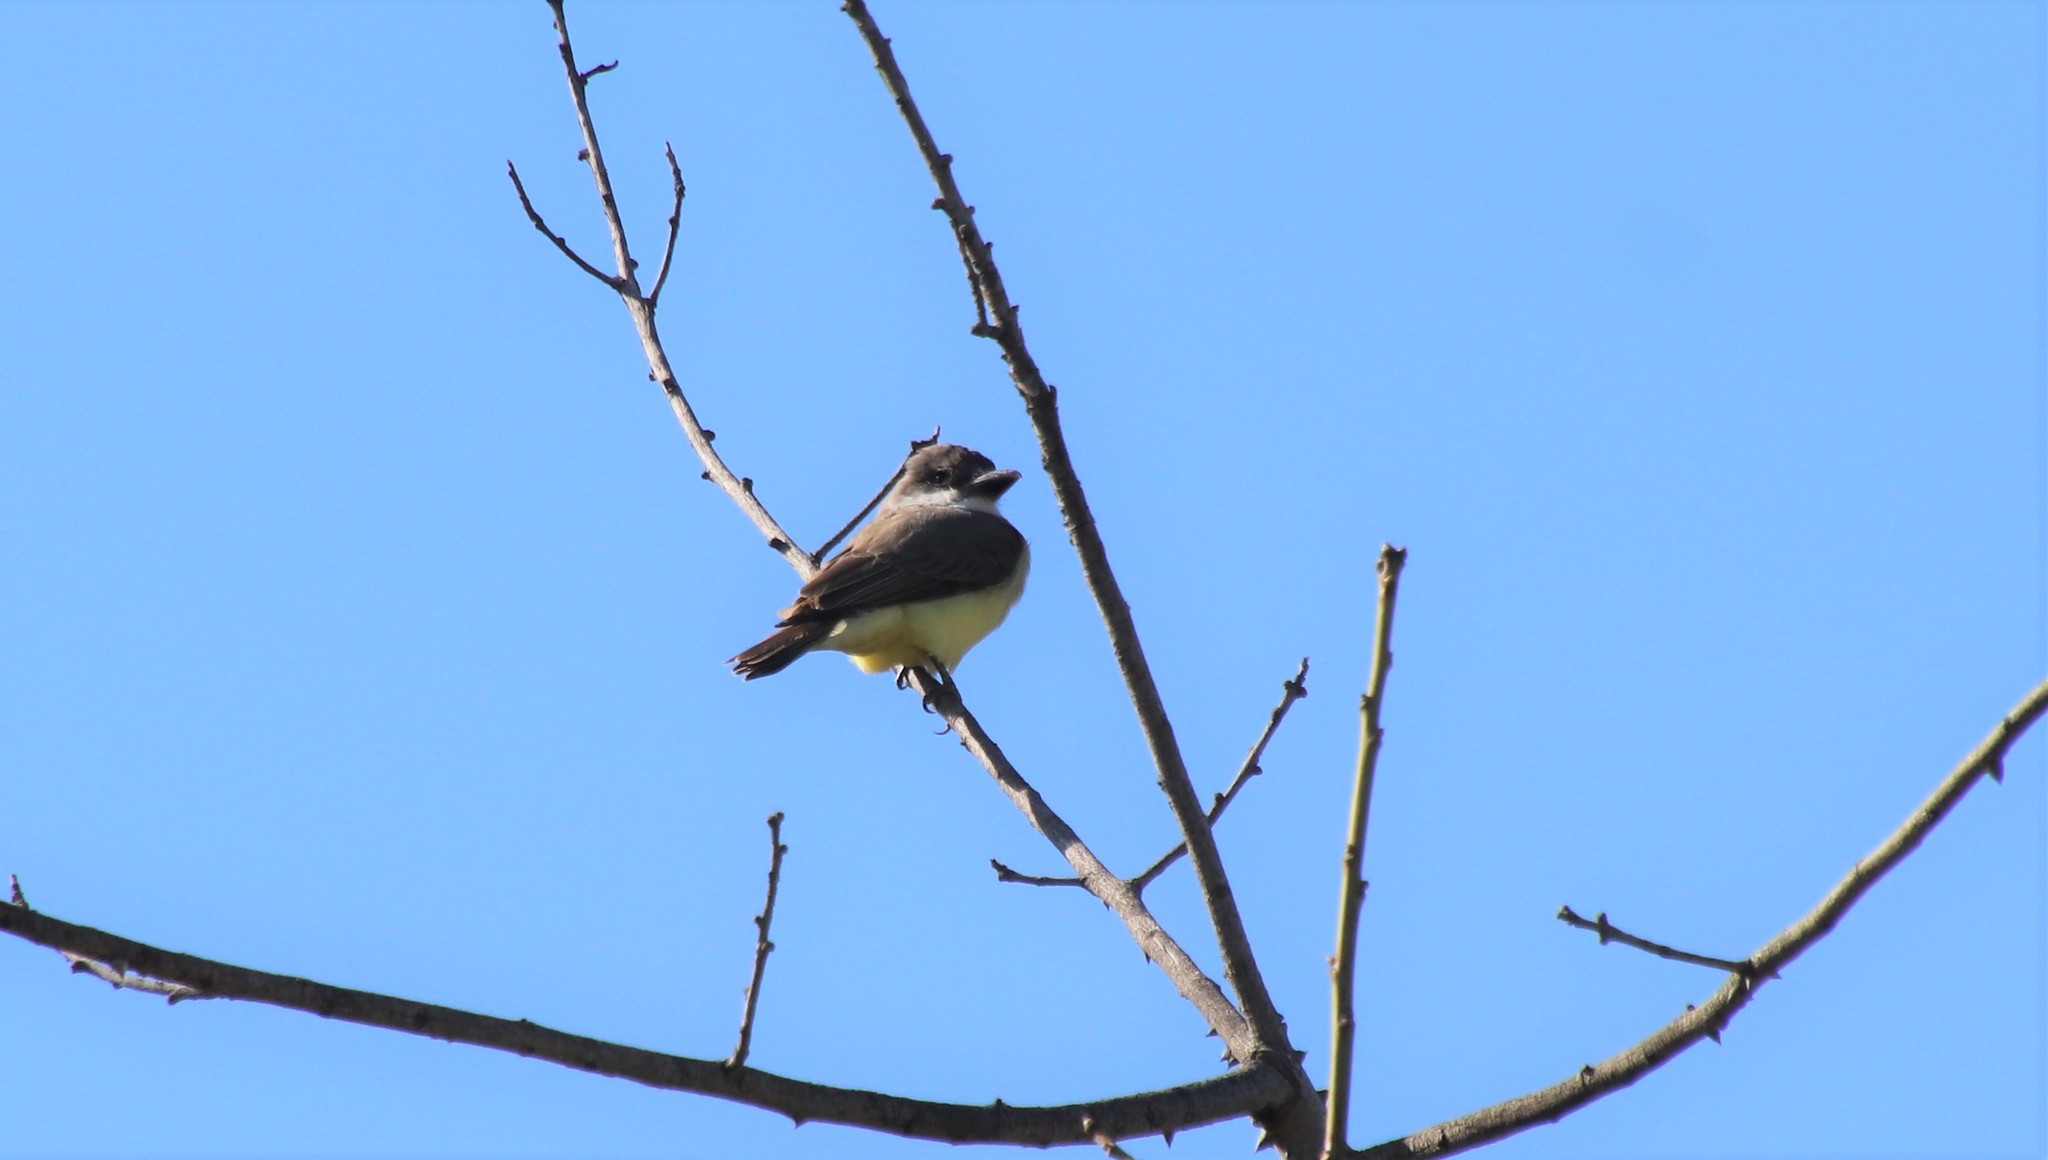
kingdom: Animalia
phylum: Chordata
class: Aves
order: Passeriformes
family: Tyrannidae
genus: Tyrannus
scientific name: Tyrannus crassirostris
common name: Thick-billed kingbird
